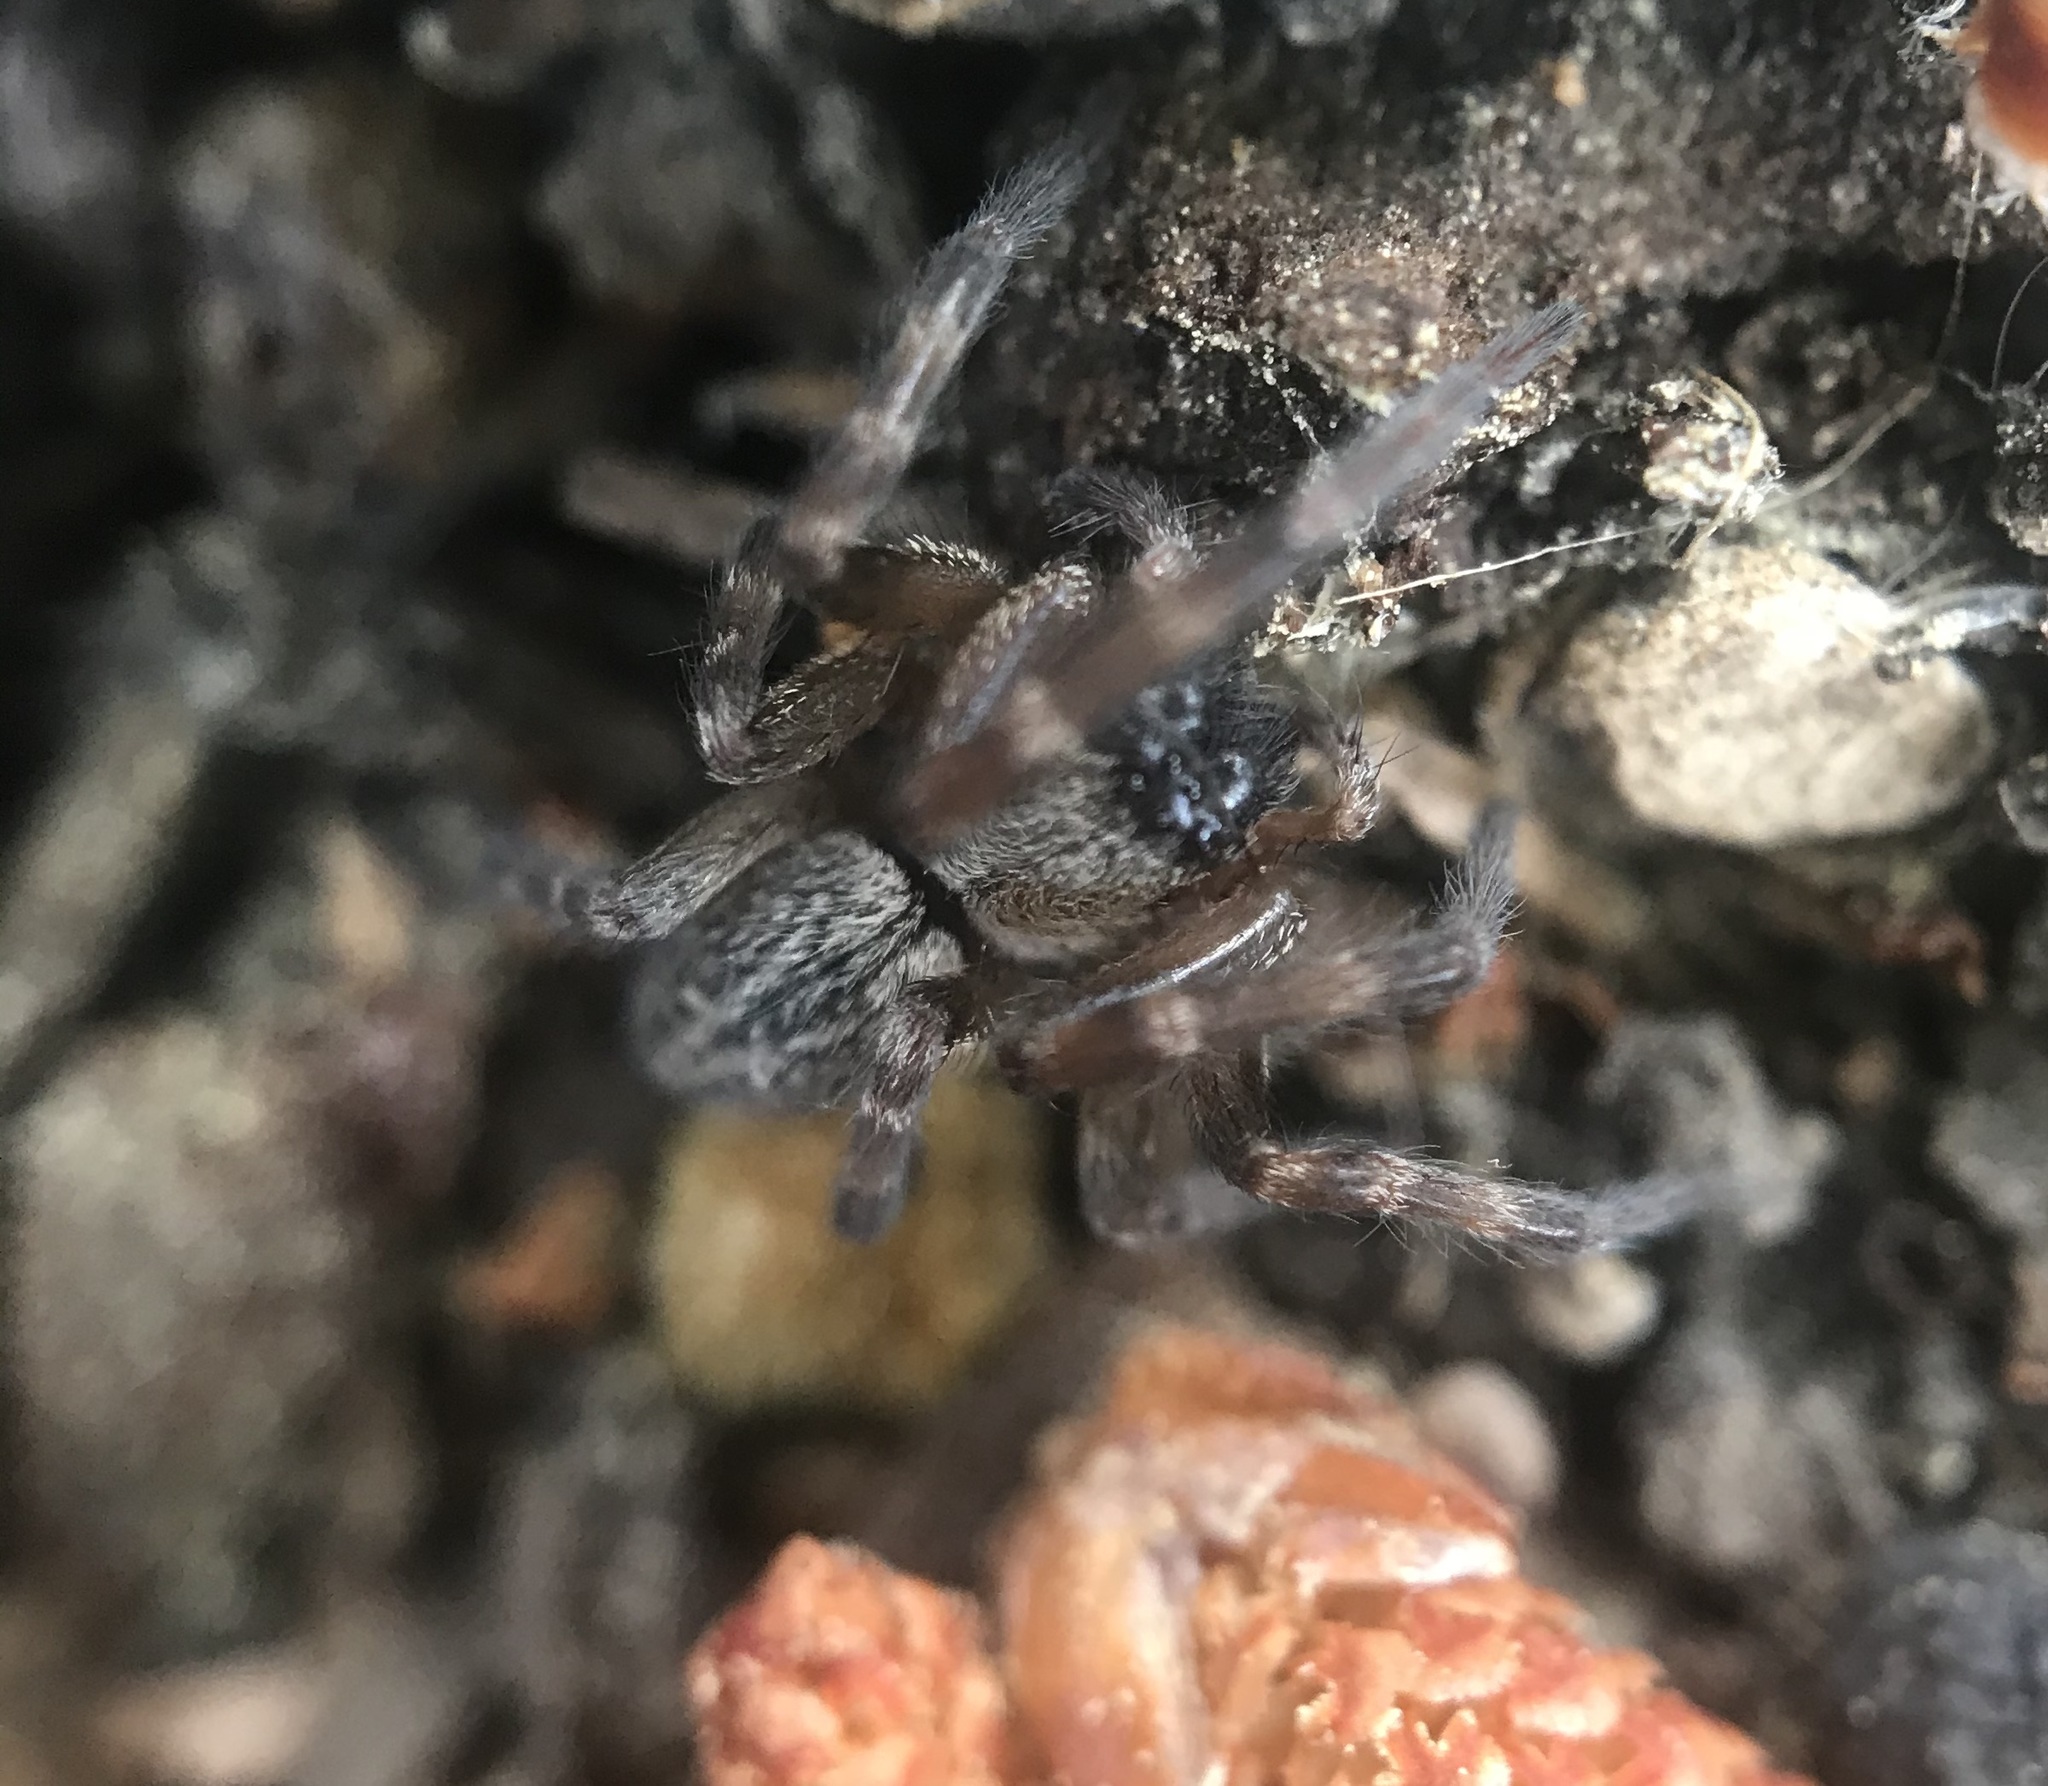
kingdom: Animalia
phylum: Arthropoda
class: Arachnida
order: Araneae
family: Desidae
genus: Badumna
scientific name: Badumna longinqua
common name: Gray house spider
